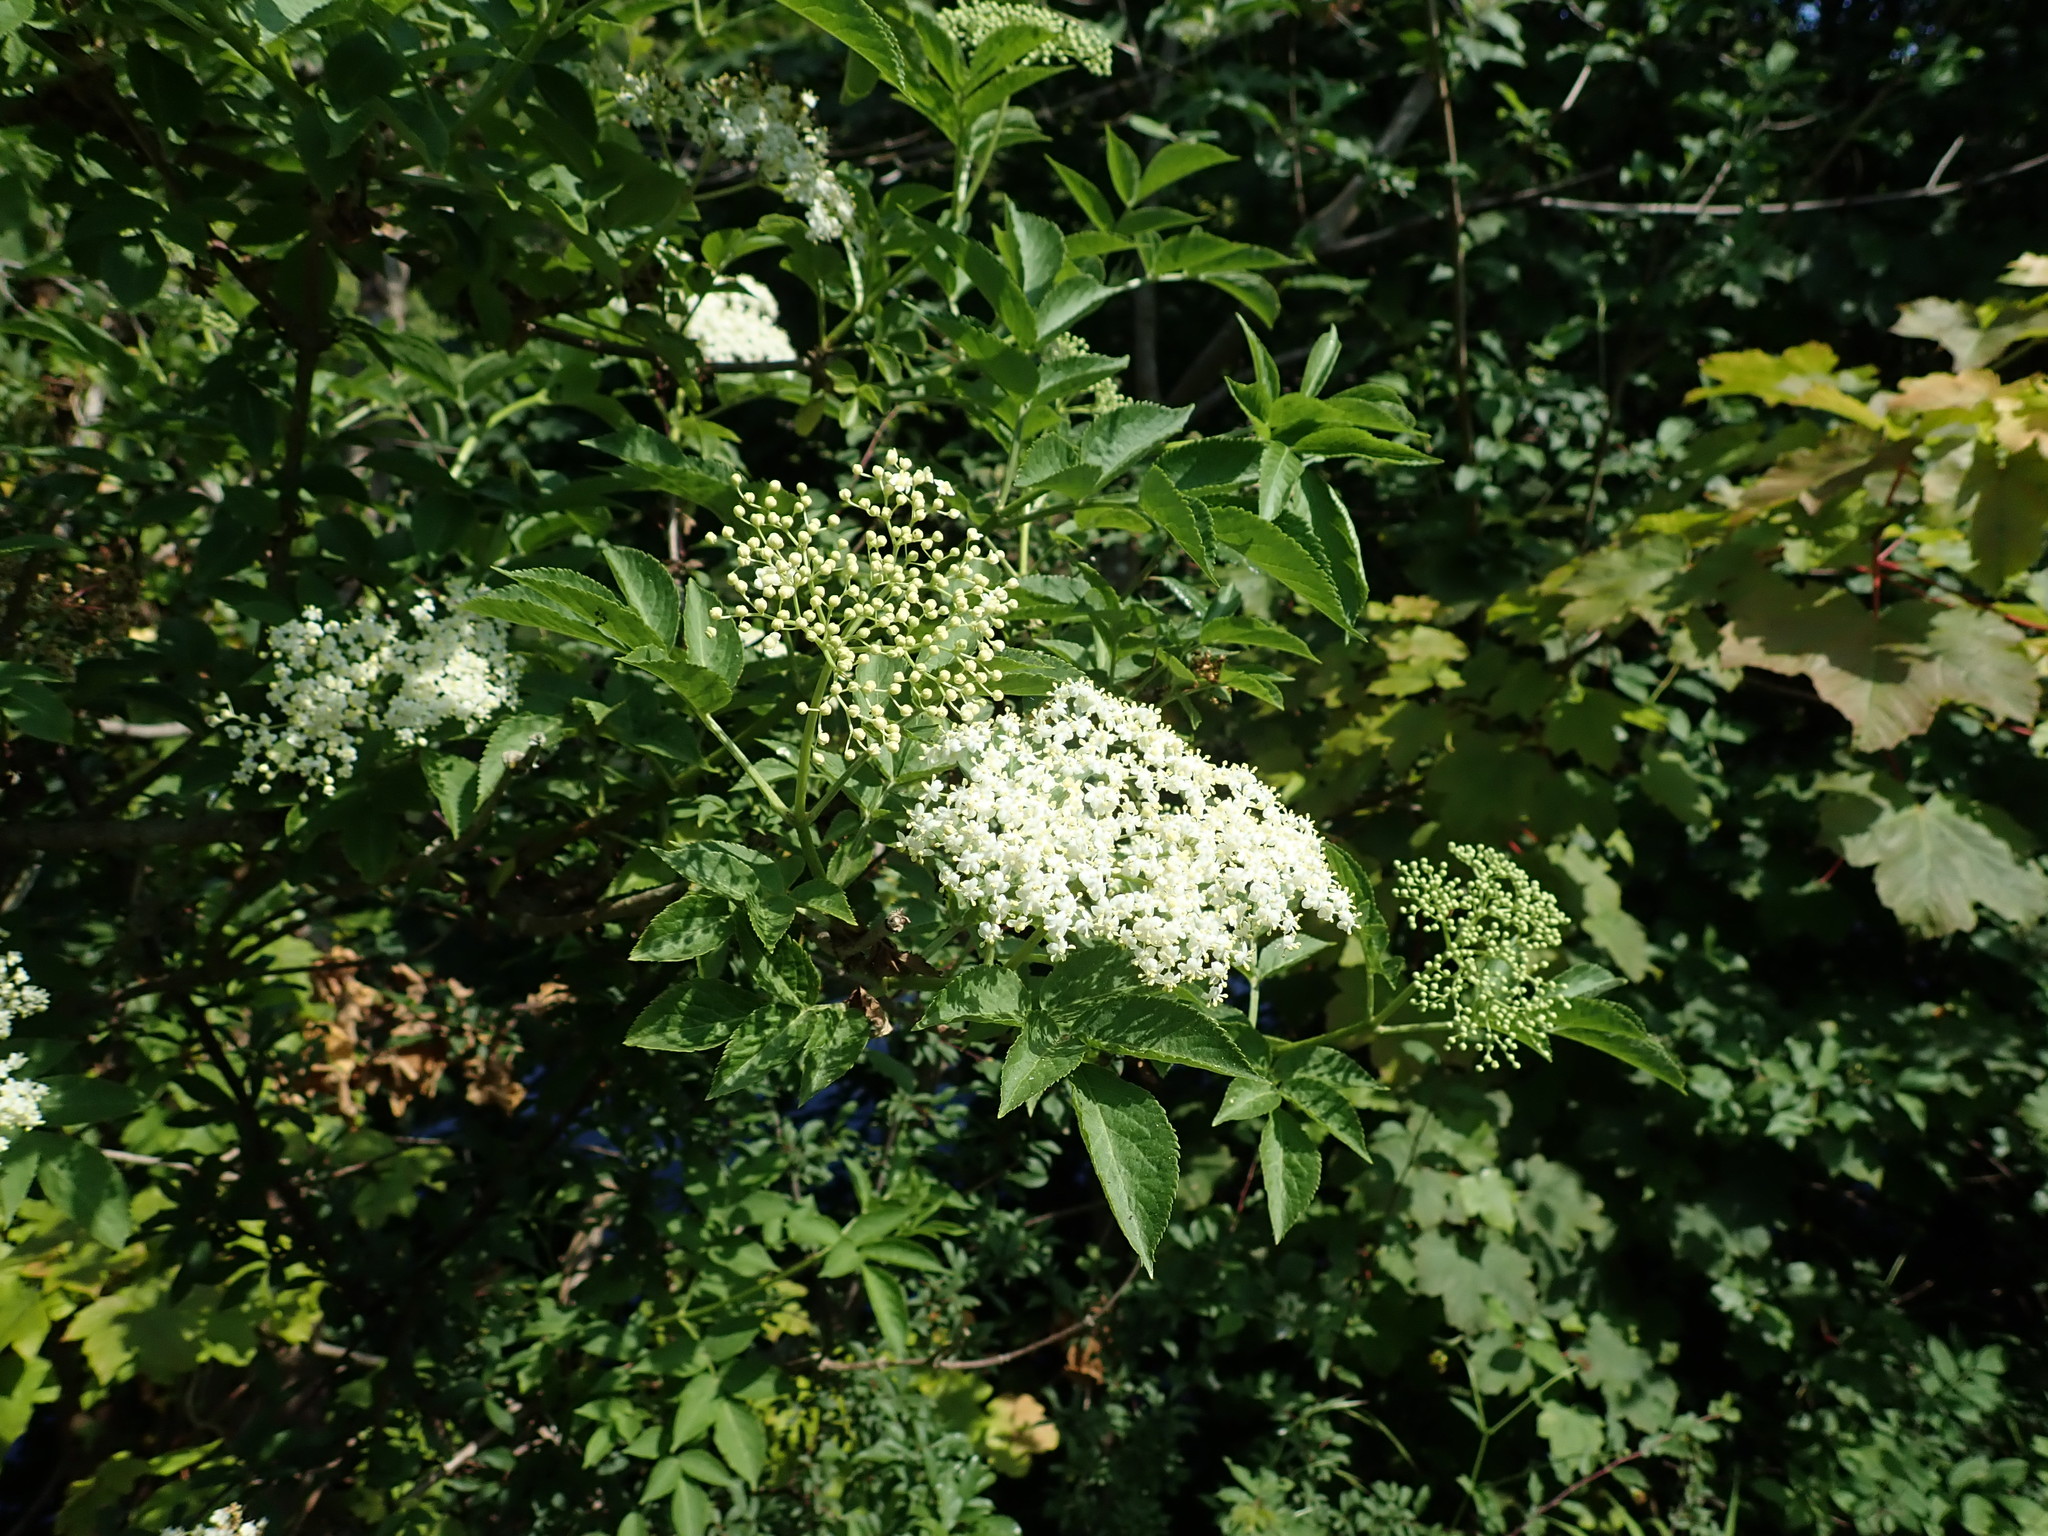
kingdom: Plantae
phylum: Tracheophyta
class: Magnoliopsida
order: Dipsacales
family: Viburnaceae
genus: Sambucus
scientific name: Sambucus nigra
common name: Elder
